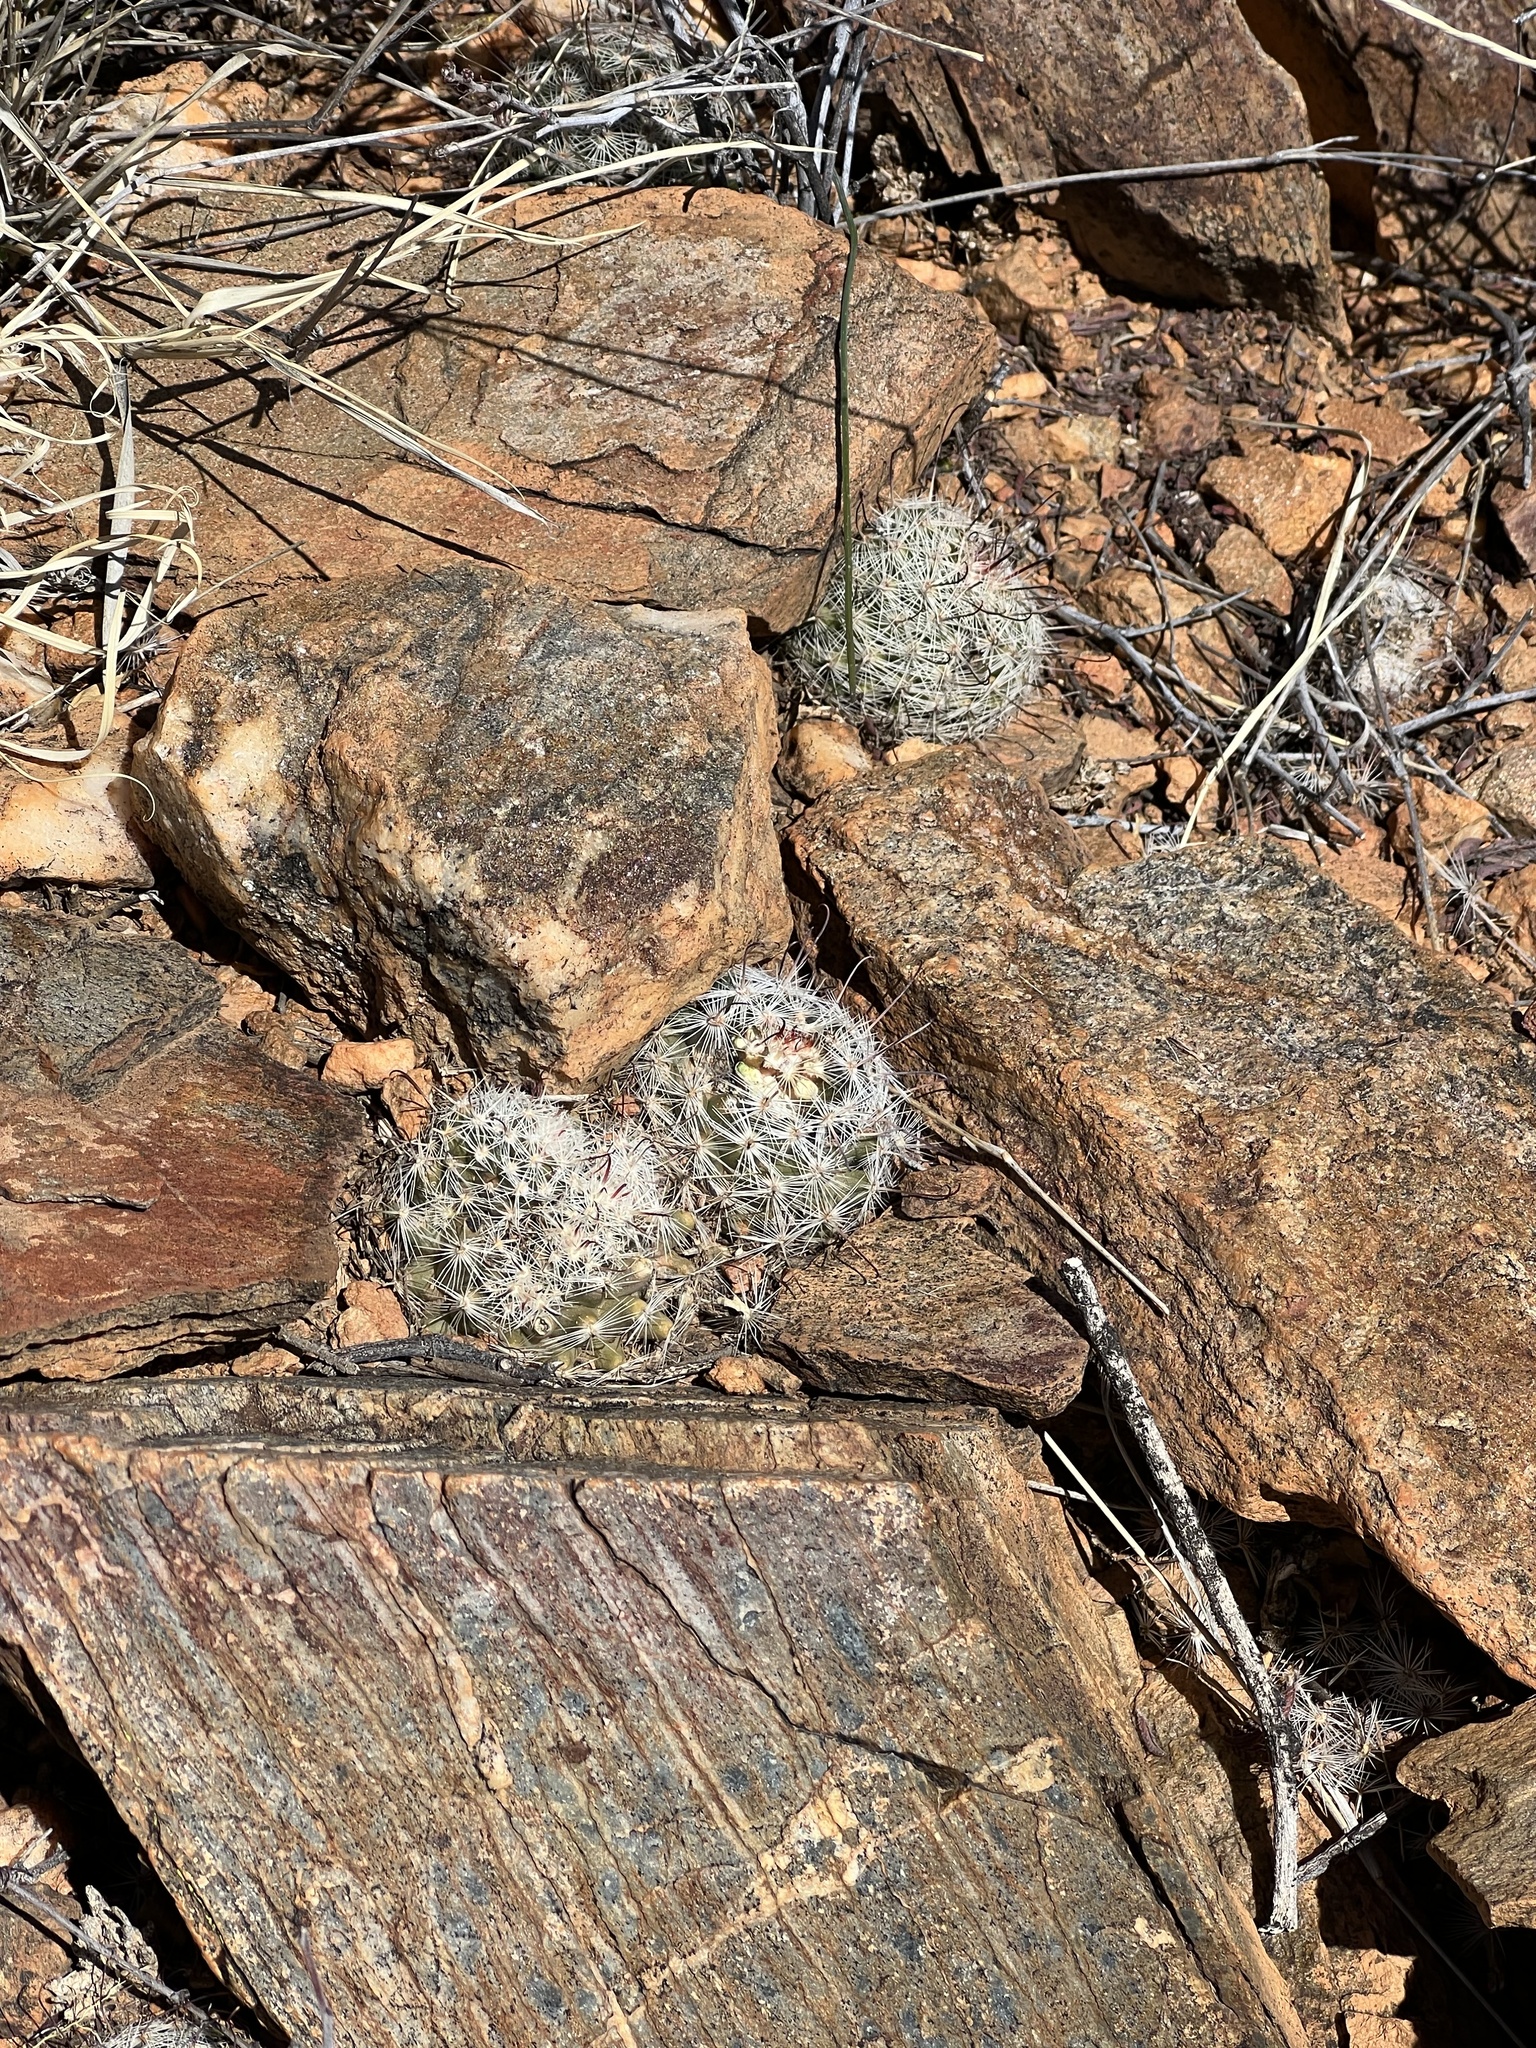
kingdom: Plantae
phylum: Tracheophyta
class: Magnoliopsida
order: Caryophyllales
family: Cactaceae
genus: Cochemiea
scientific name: Cochemiea grahamii
